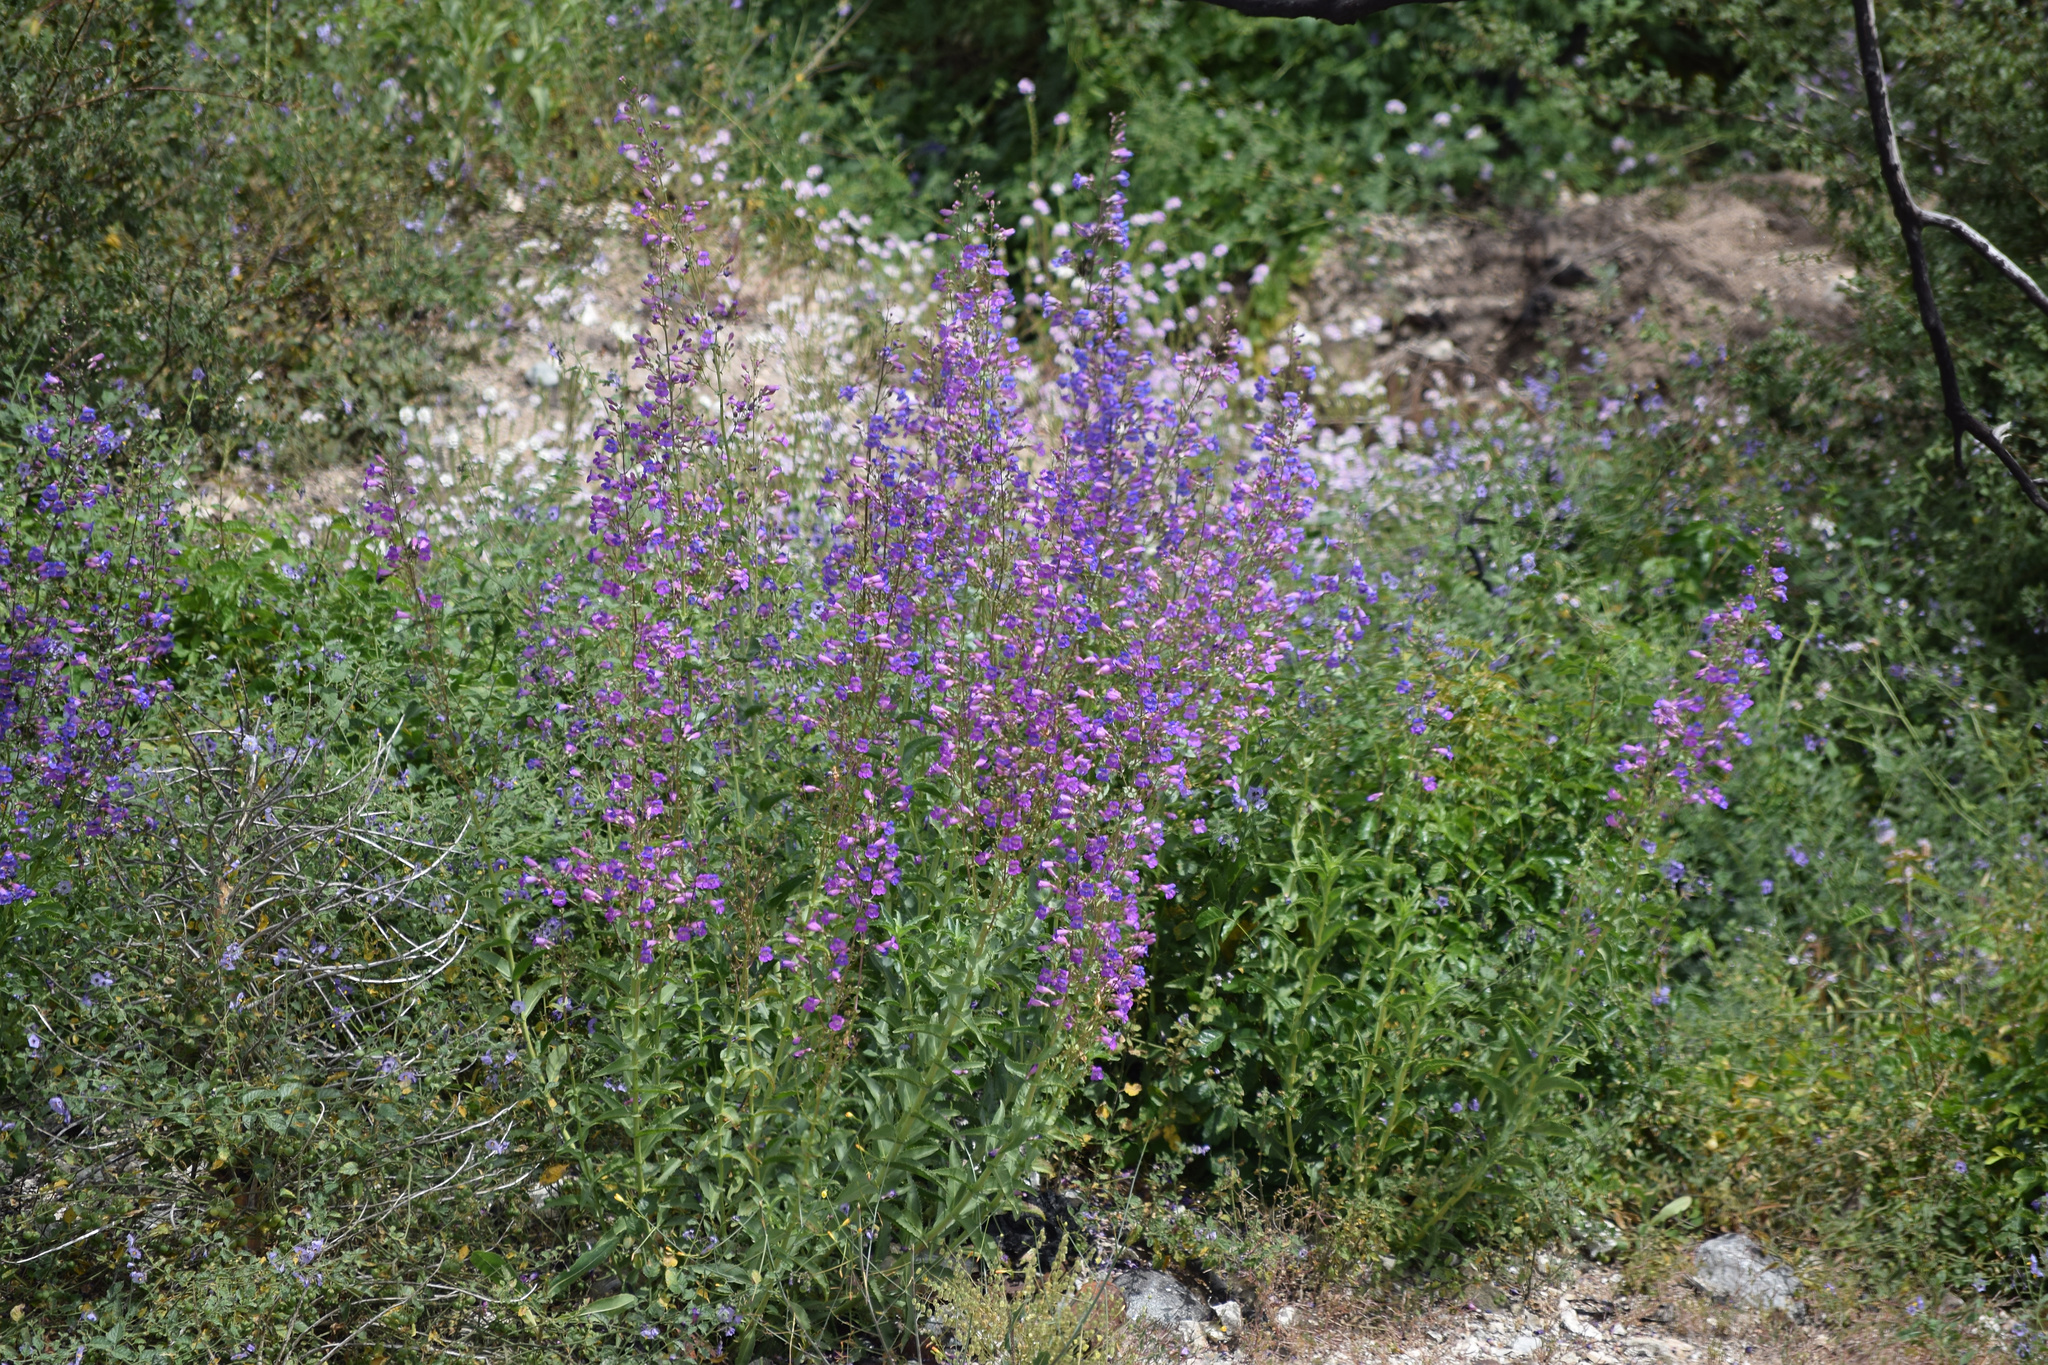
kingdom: Plantae
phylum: Tracheophyta
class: Magnoliopsida
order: Lamiales
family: Plantaginaceae
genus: Penstemon
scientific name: Penstemon spectabilis
